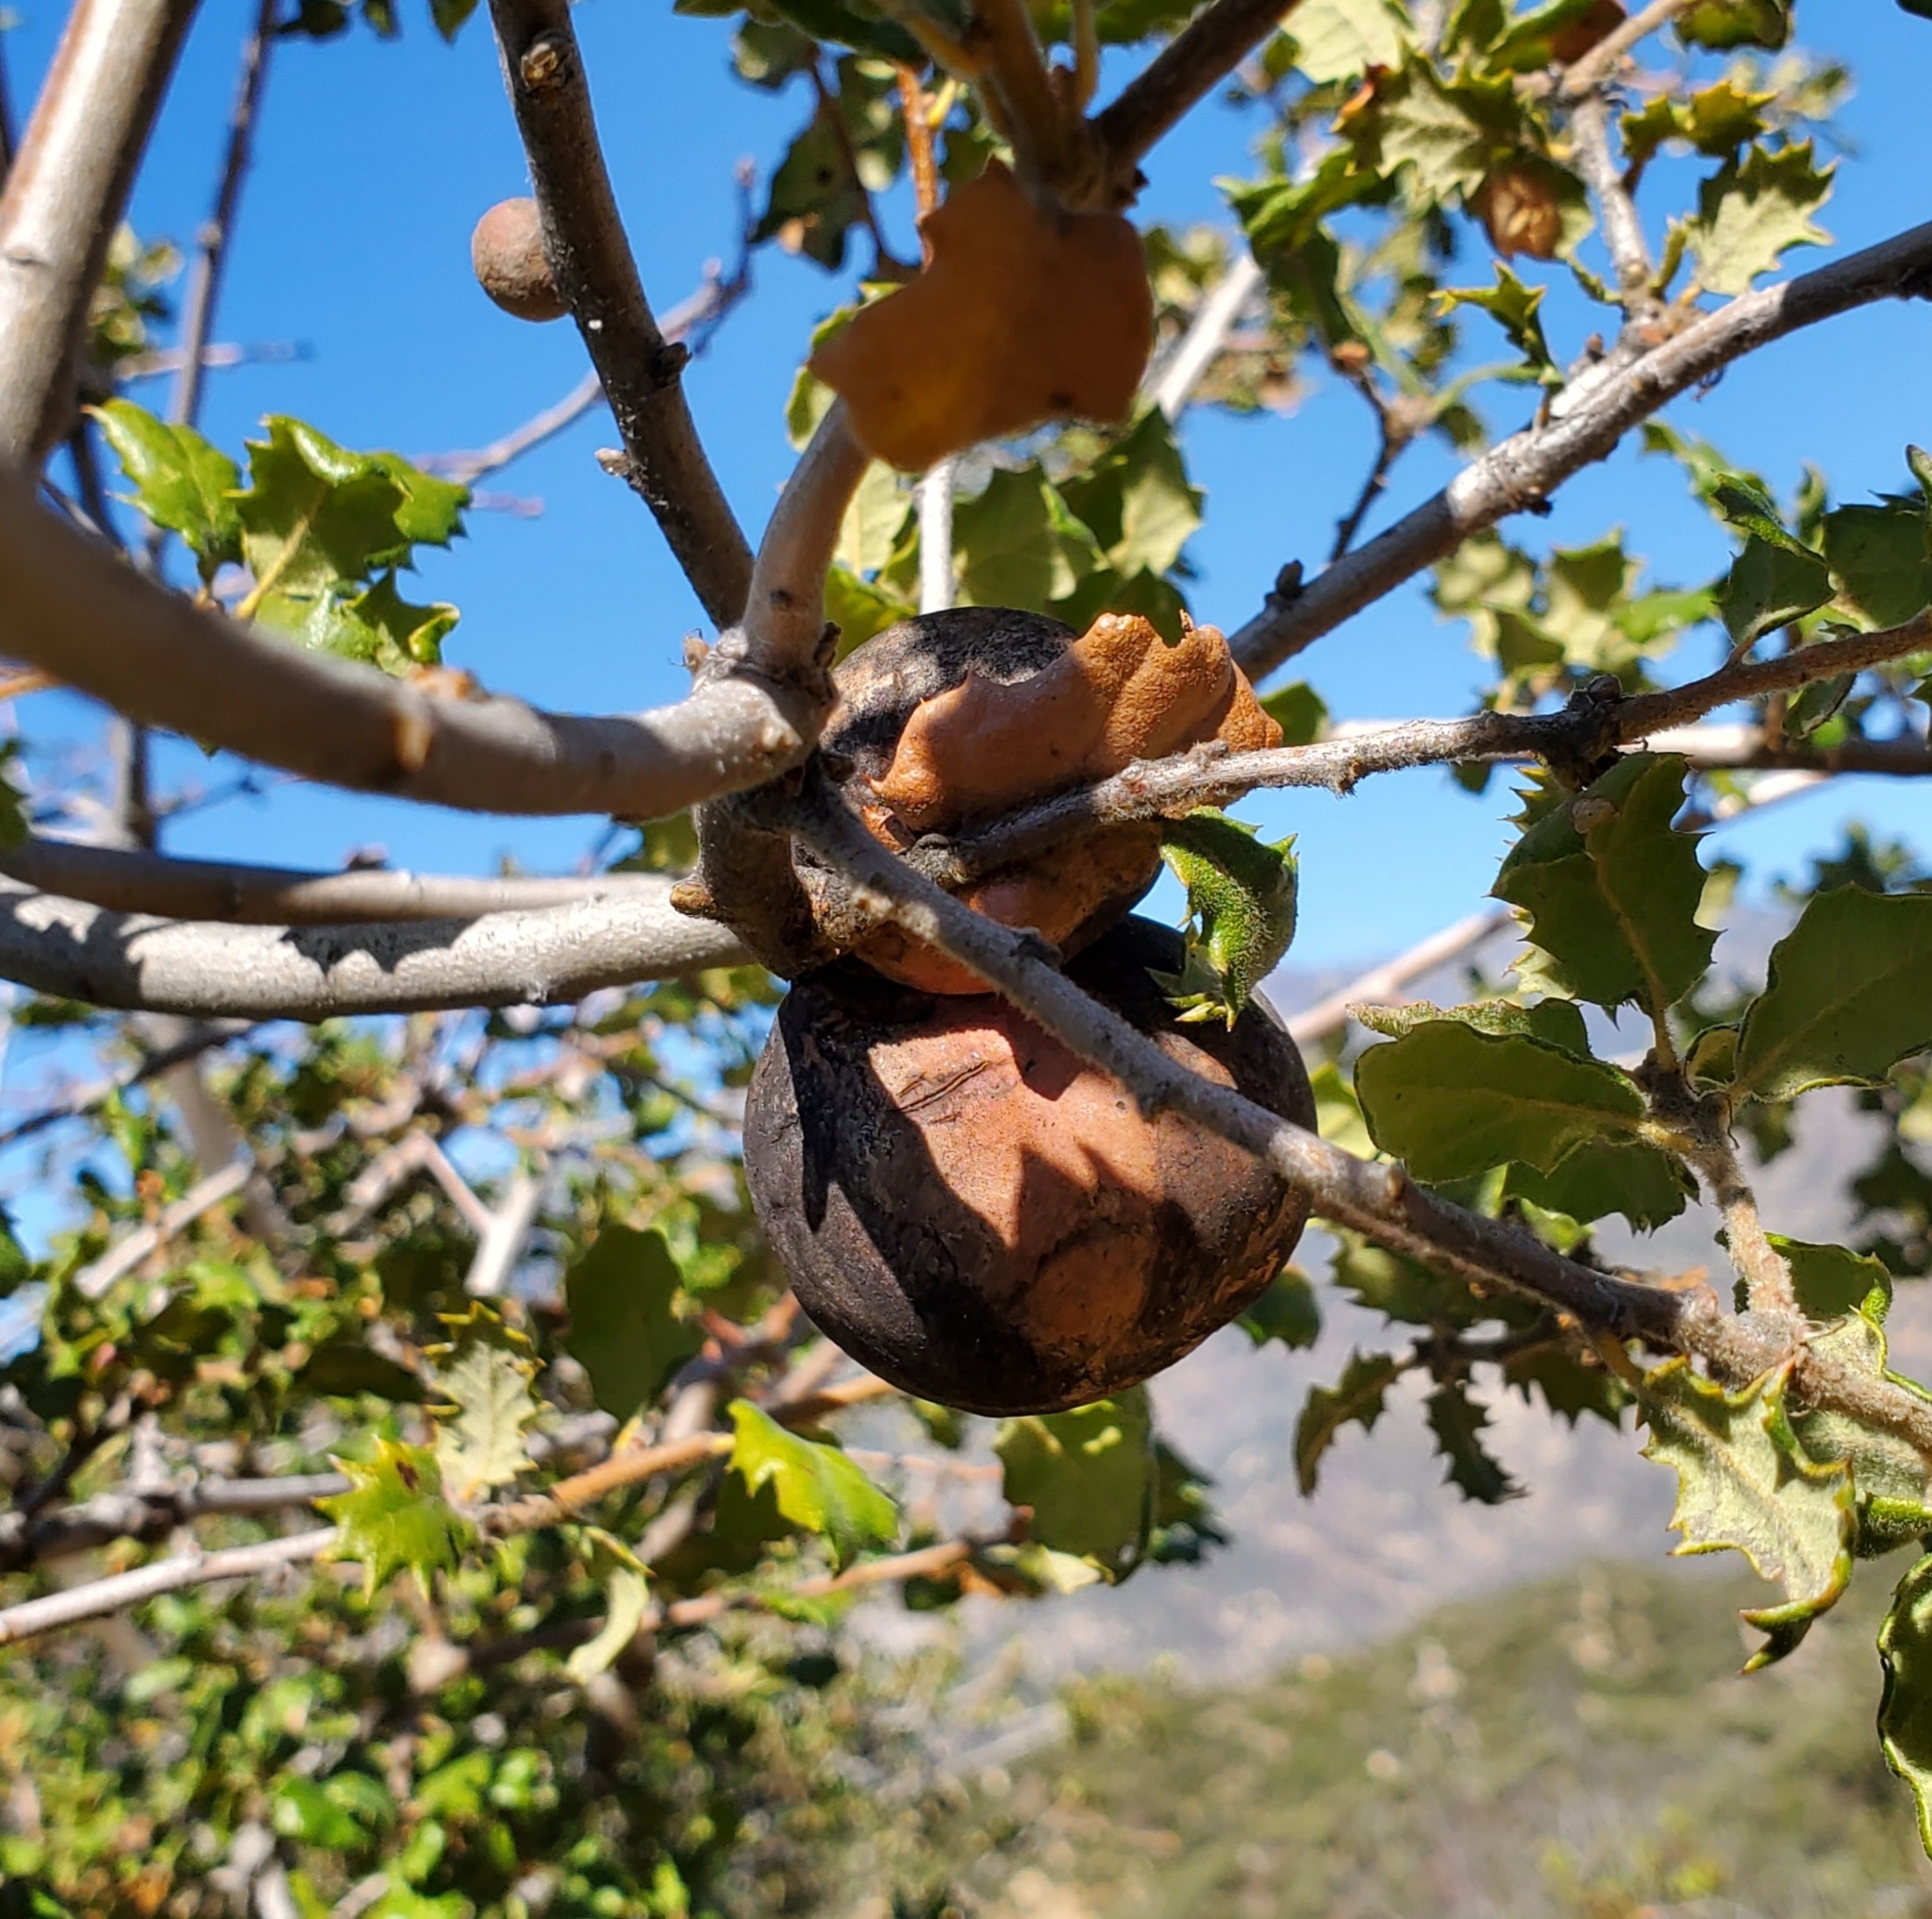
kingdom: Animalia
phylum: Arthropoda
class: Insecta
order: Hymenoptera
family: Cynipidae
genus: Andricus
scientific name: Andricus quercuscalifornicus
